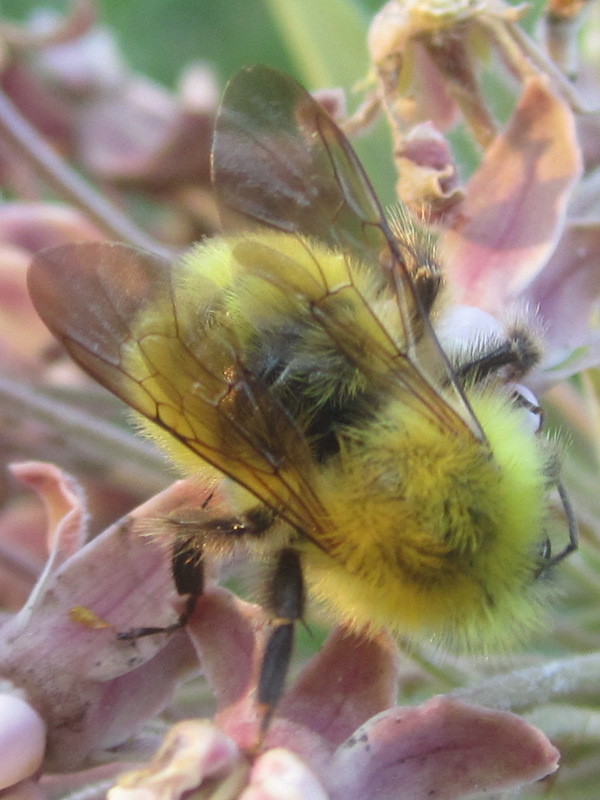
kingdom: Animalia
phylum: Arthropoda
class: Insecta
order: Hymenoptera
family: Apidae
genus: Bombus
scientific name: Bombus perplexus
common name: Confusing bumble bee
